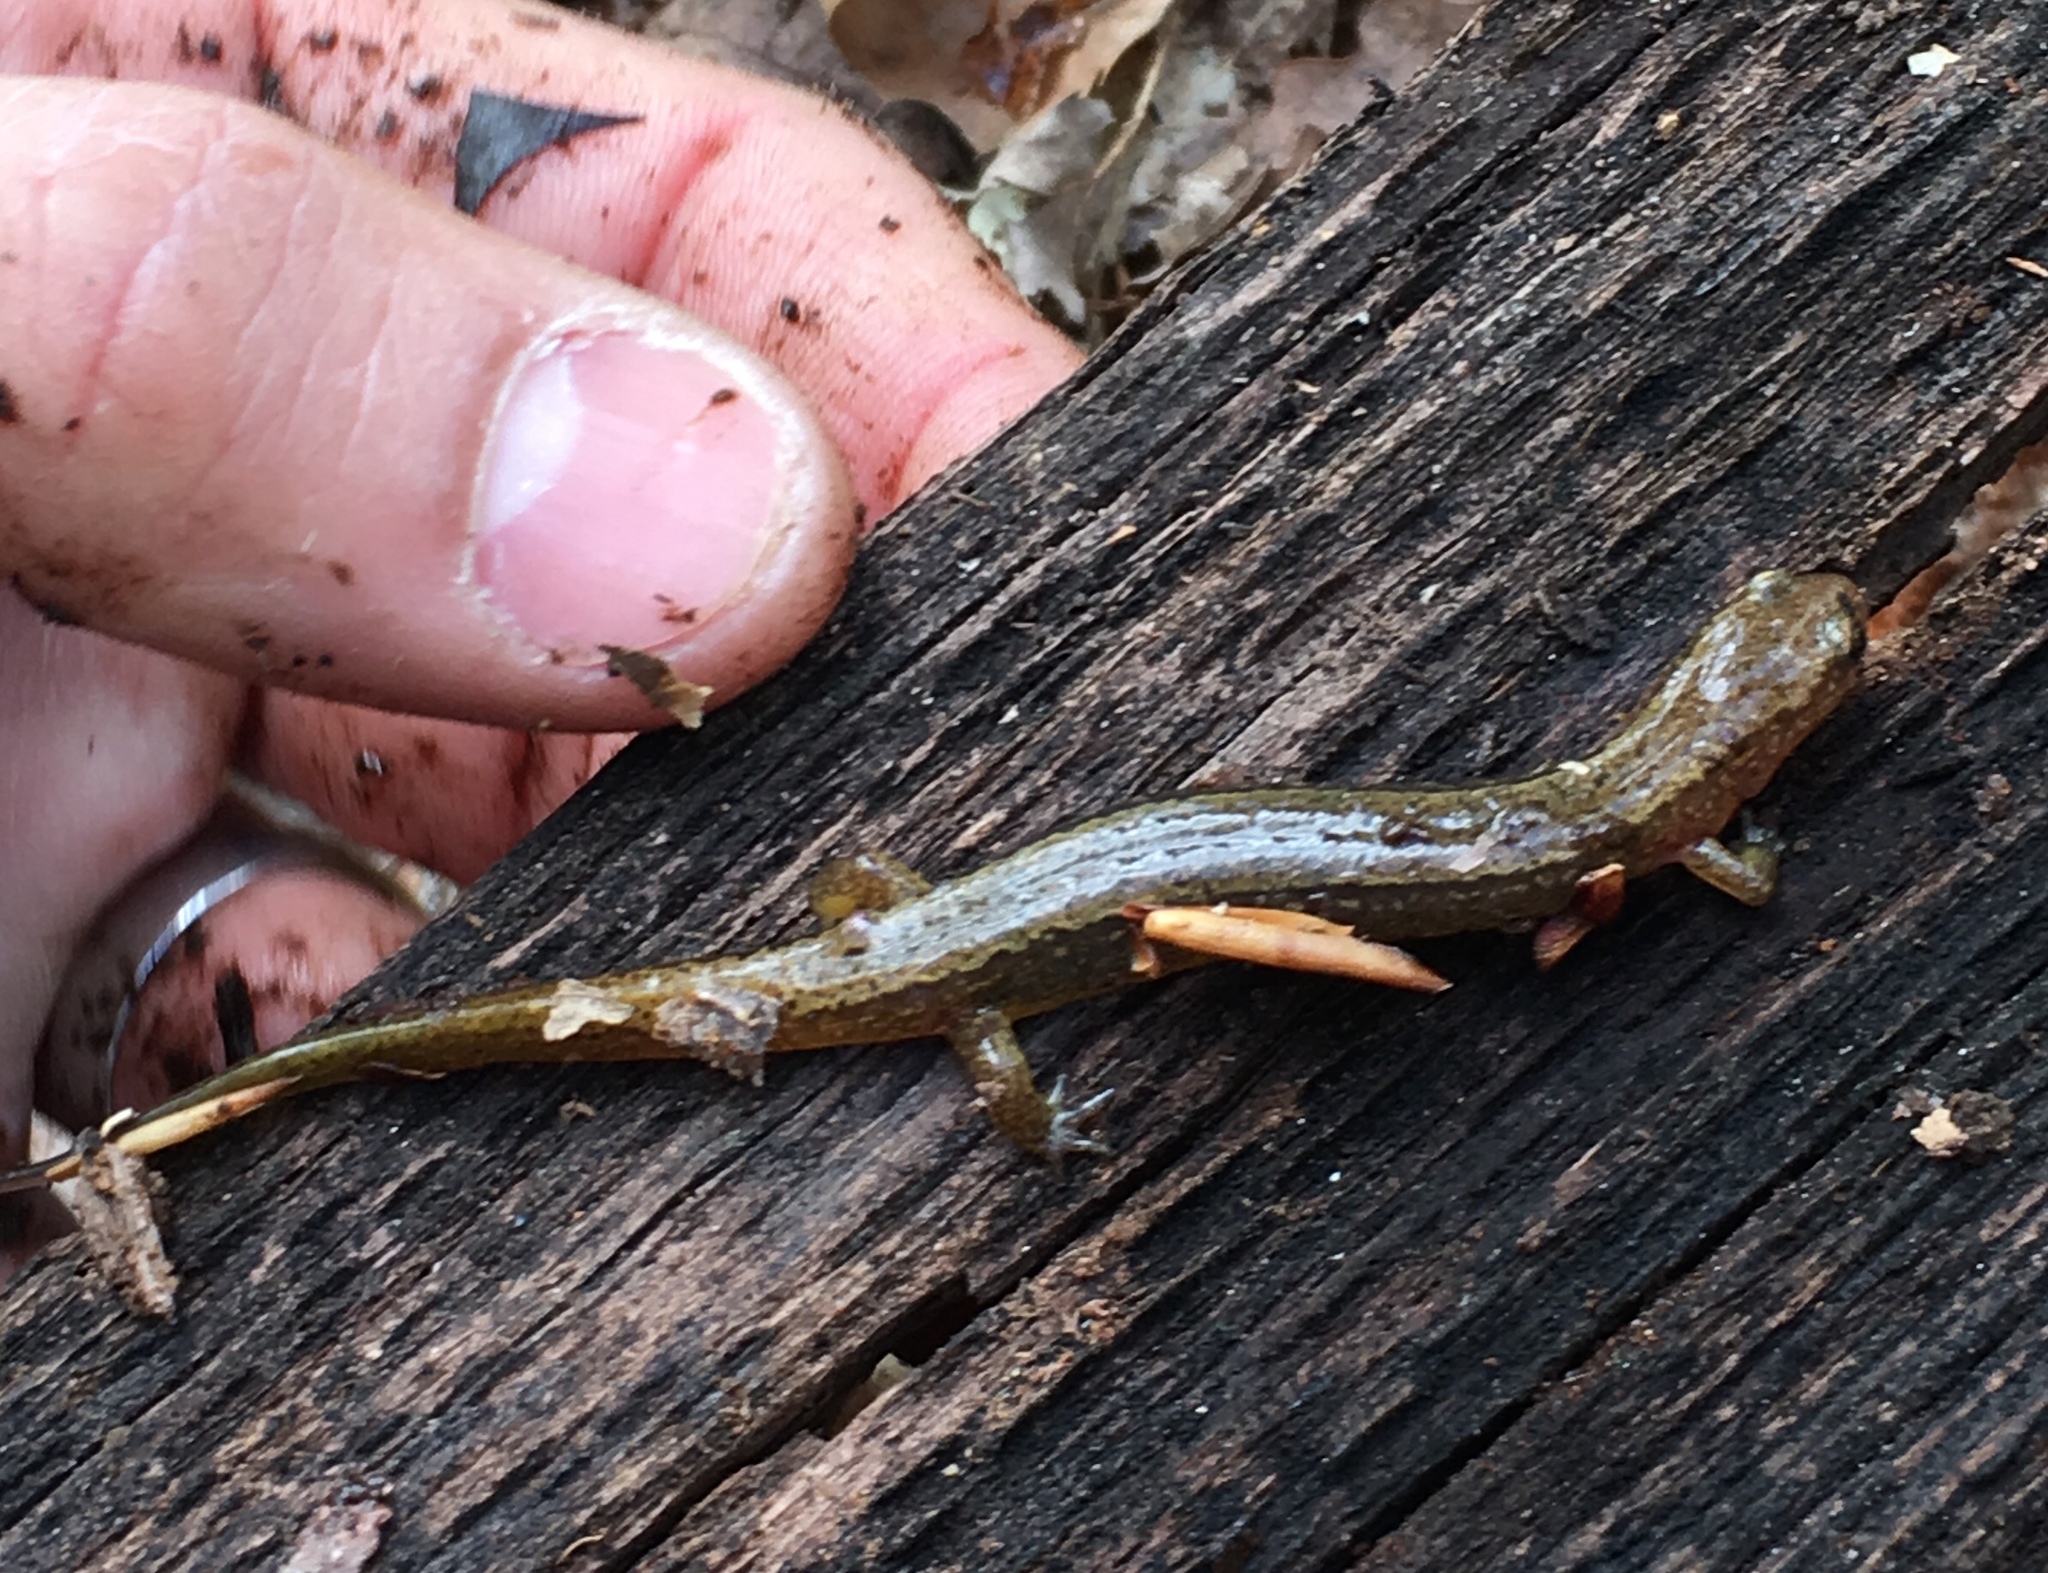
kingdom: Animalia
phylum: Chordata
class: Amphibia
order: Caudata
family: Plethodontidae
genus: Eurycea
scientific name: Eurycea bislineata
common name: Northern two-lined salamander
